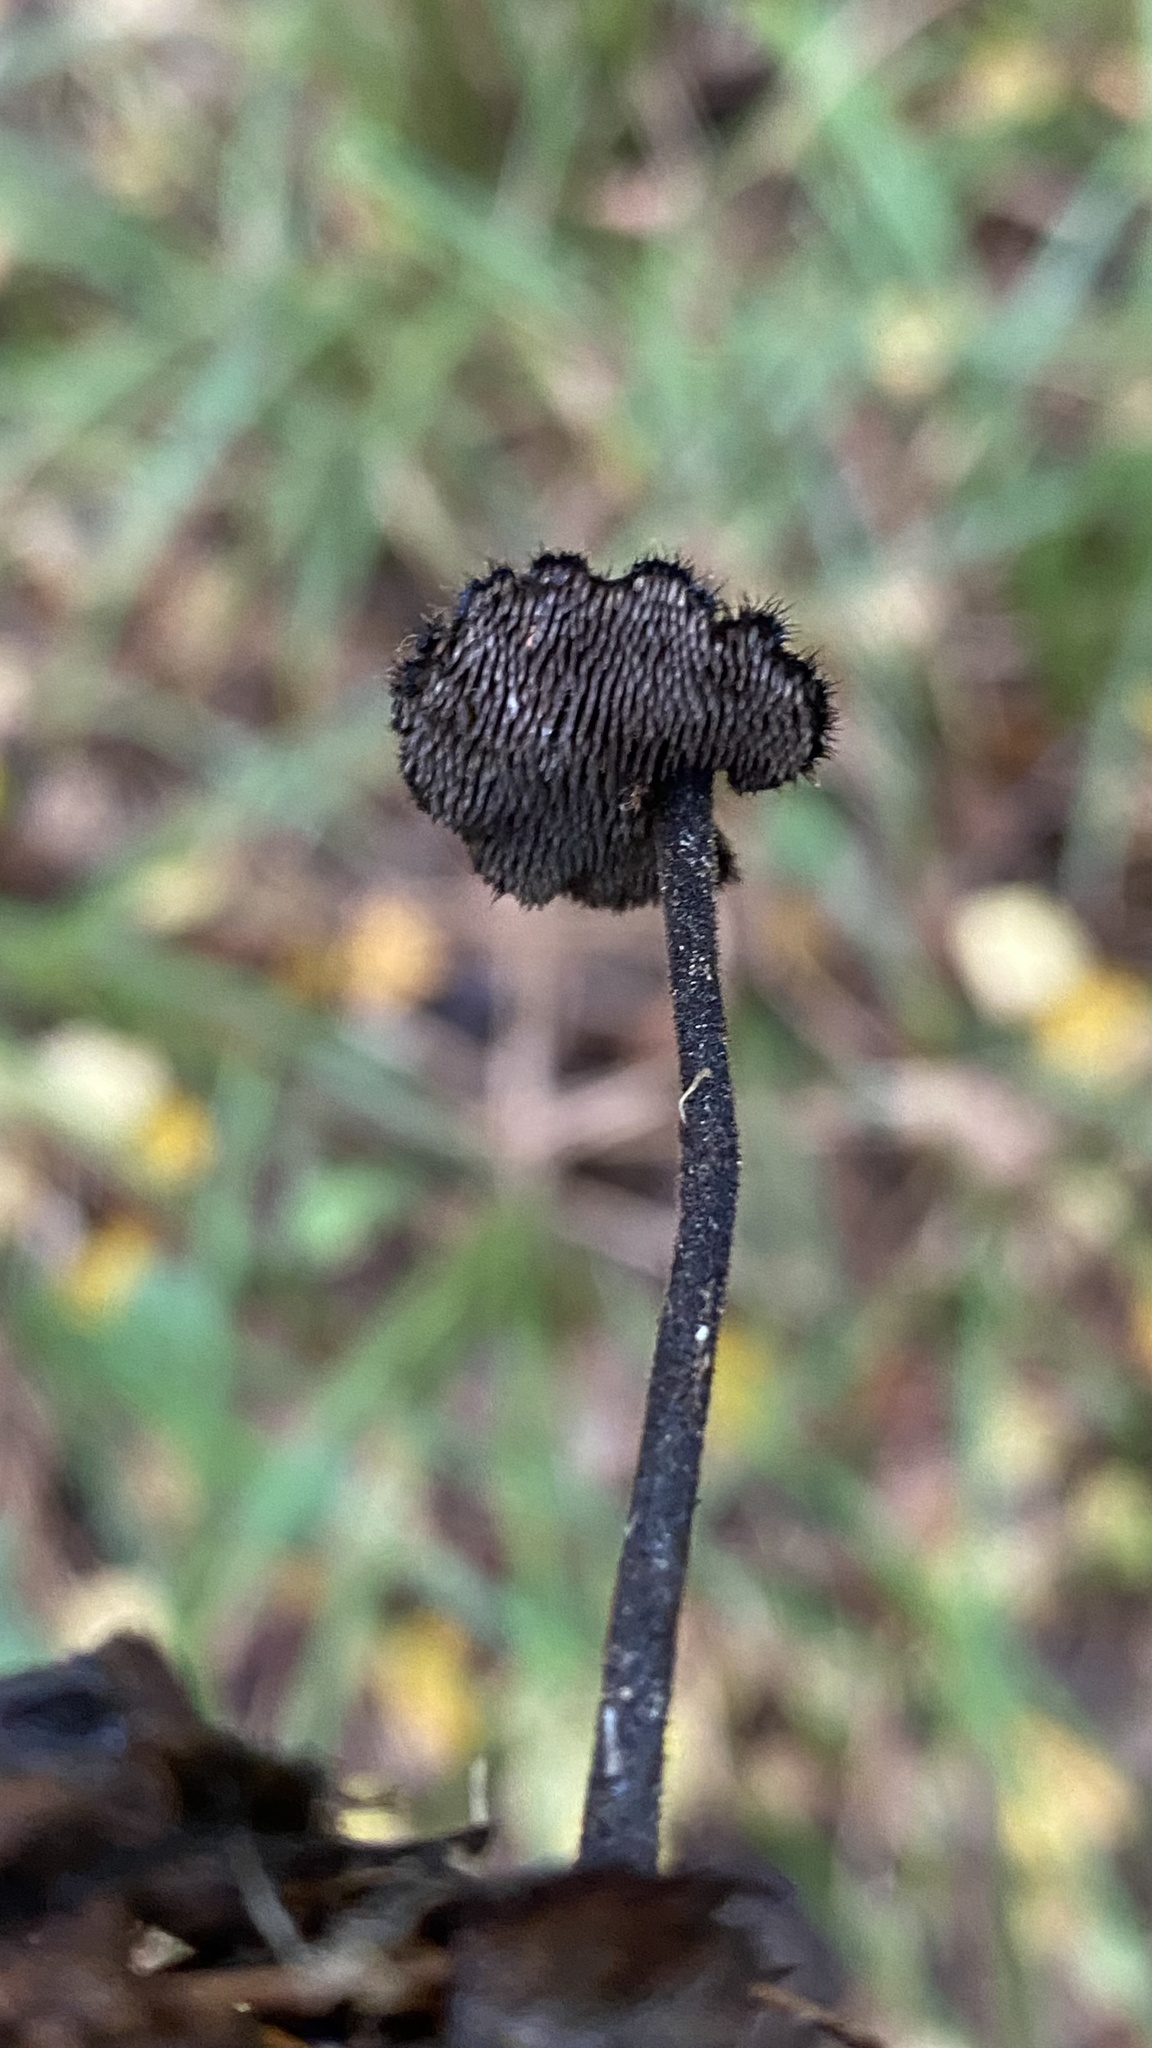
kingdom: Fungi
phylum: Basidiomycota
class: Agaricomycetes
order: Russulales
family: Auriscalpiaceae
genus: Auriscalpium
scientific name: Auriscalpium vulgare
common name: Earpick fungus
